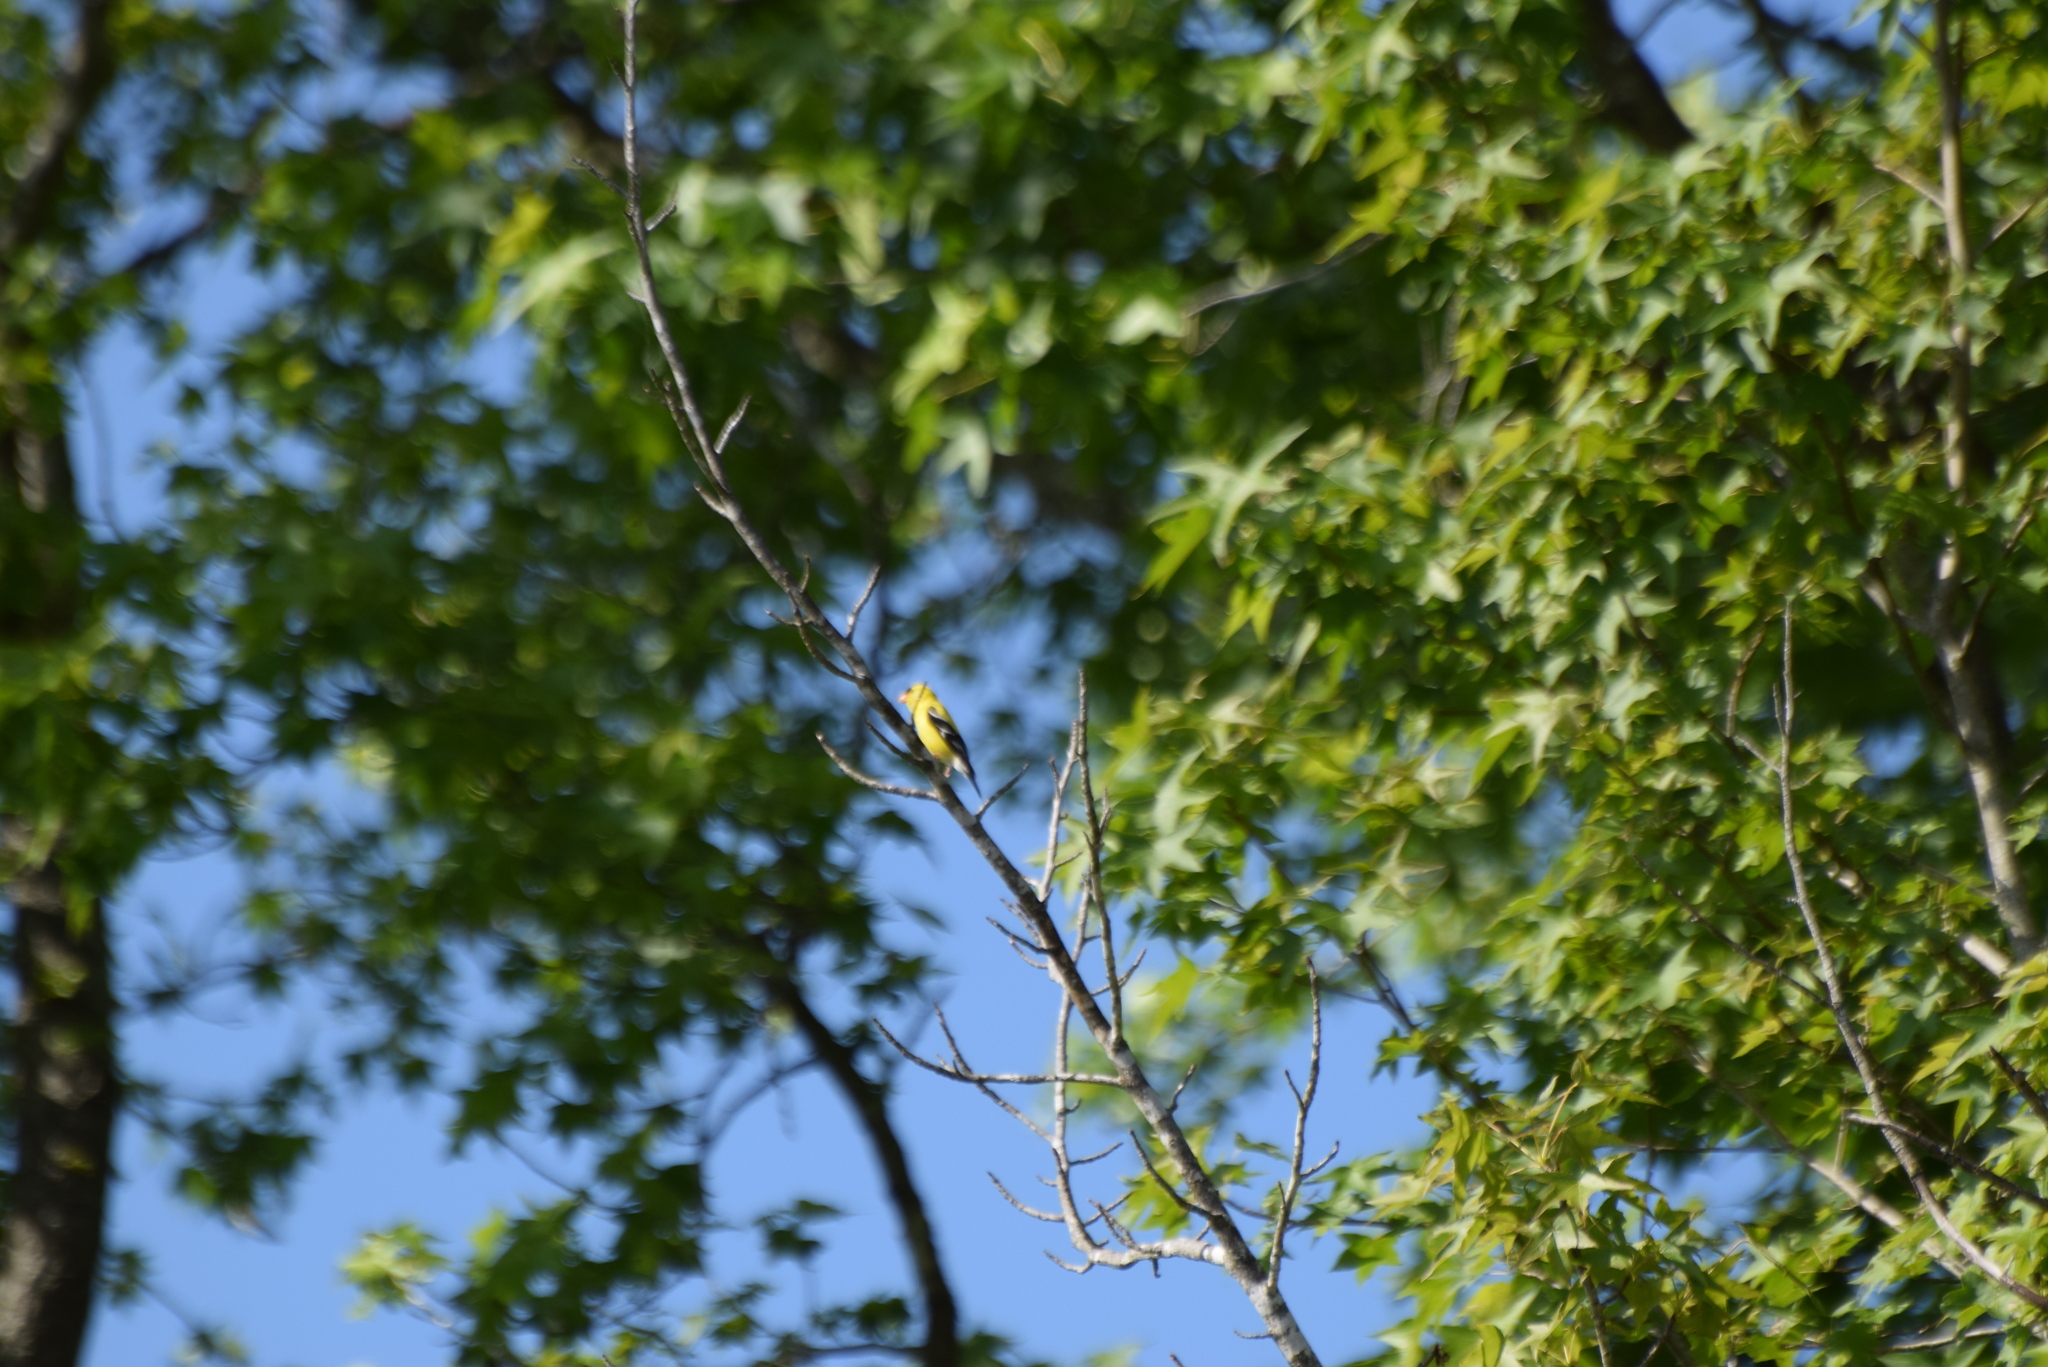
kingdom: Animalia
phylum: Chordata
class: Aves
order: Passeriformes
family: Fringillidae
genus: Spinus
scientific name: Spinus tristis
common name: American goldfinch
